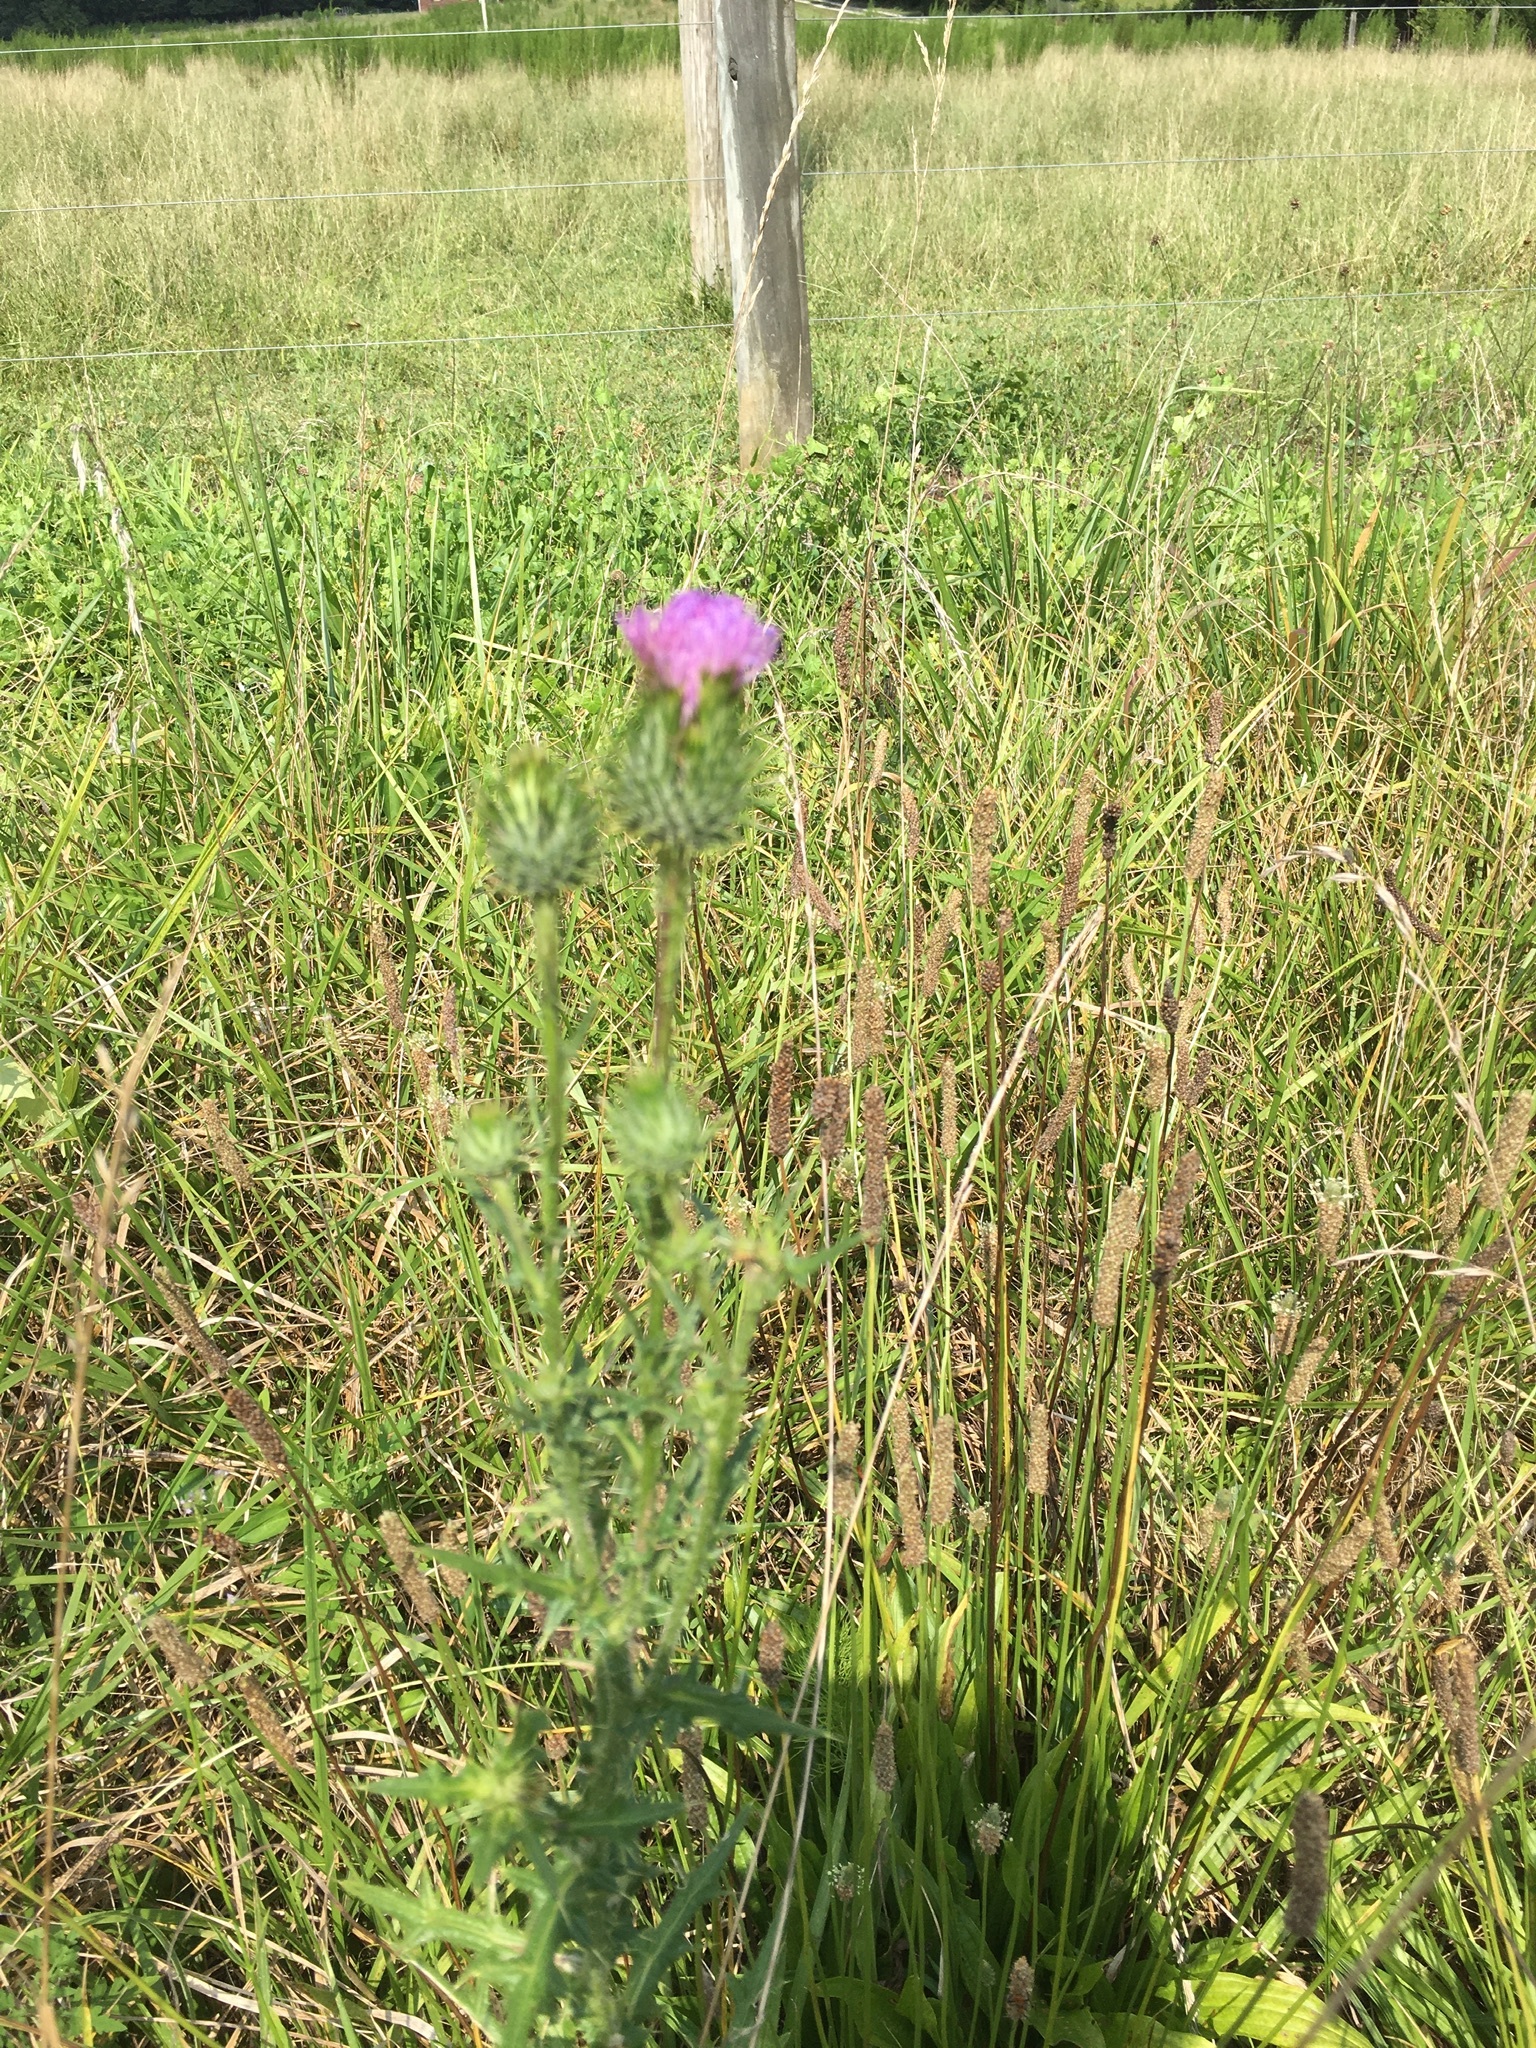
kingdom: Plantae
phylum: Tracheophyta
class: Magnoliopsida
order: Asterales
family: Asteraceae
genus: Cirsium
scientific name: Cirsium vulgare
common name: Bull thistle
